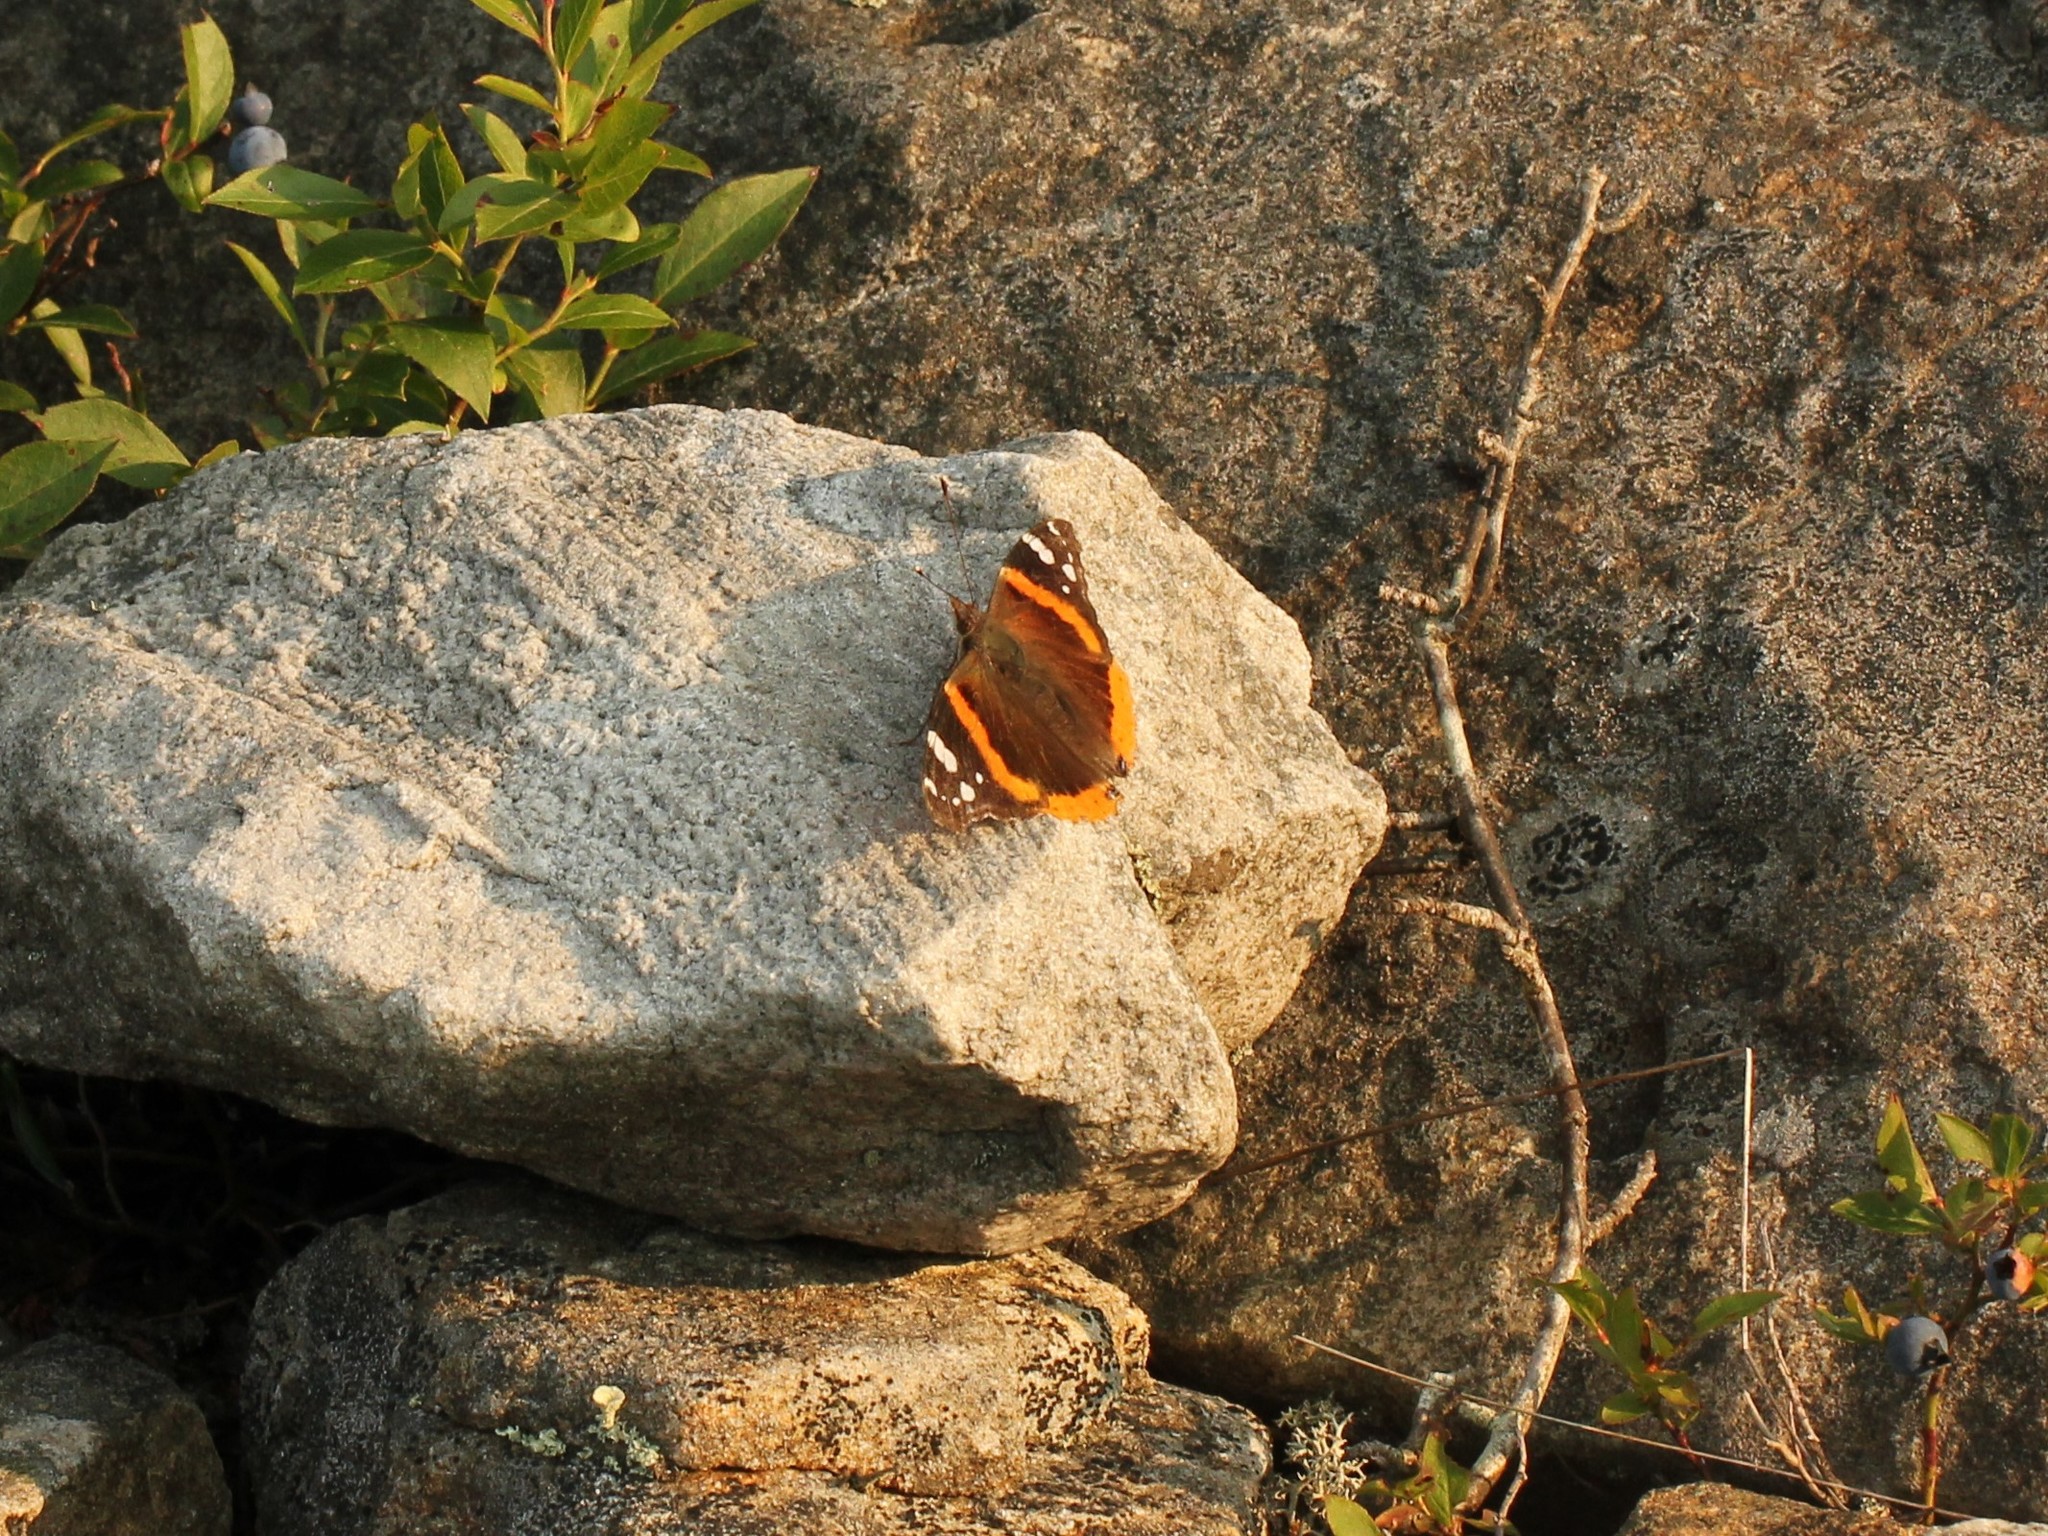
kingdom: Animalia
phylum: Arthropoda
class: Insecta
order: Lepidoptera
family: Nymphalidae
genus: Vanessa
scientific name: Vanessa atalanta
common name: Red admiral
